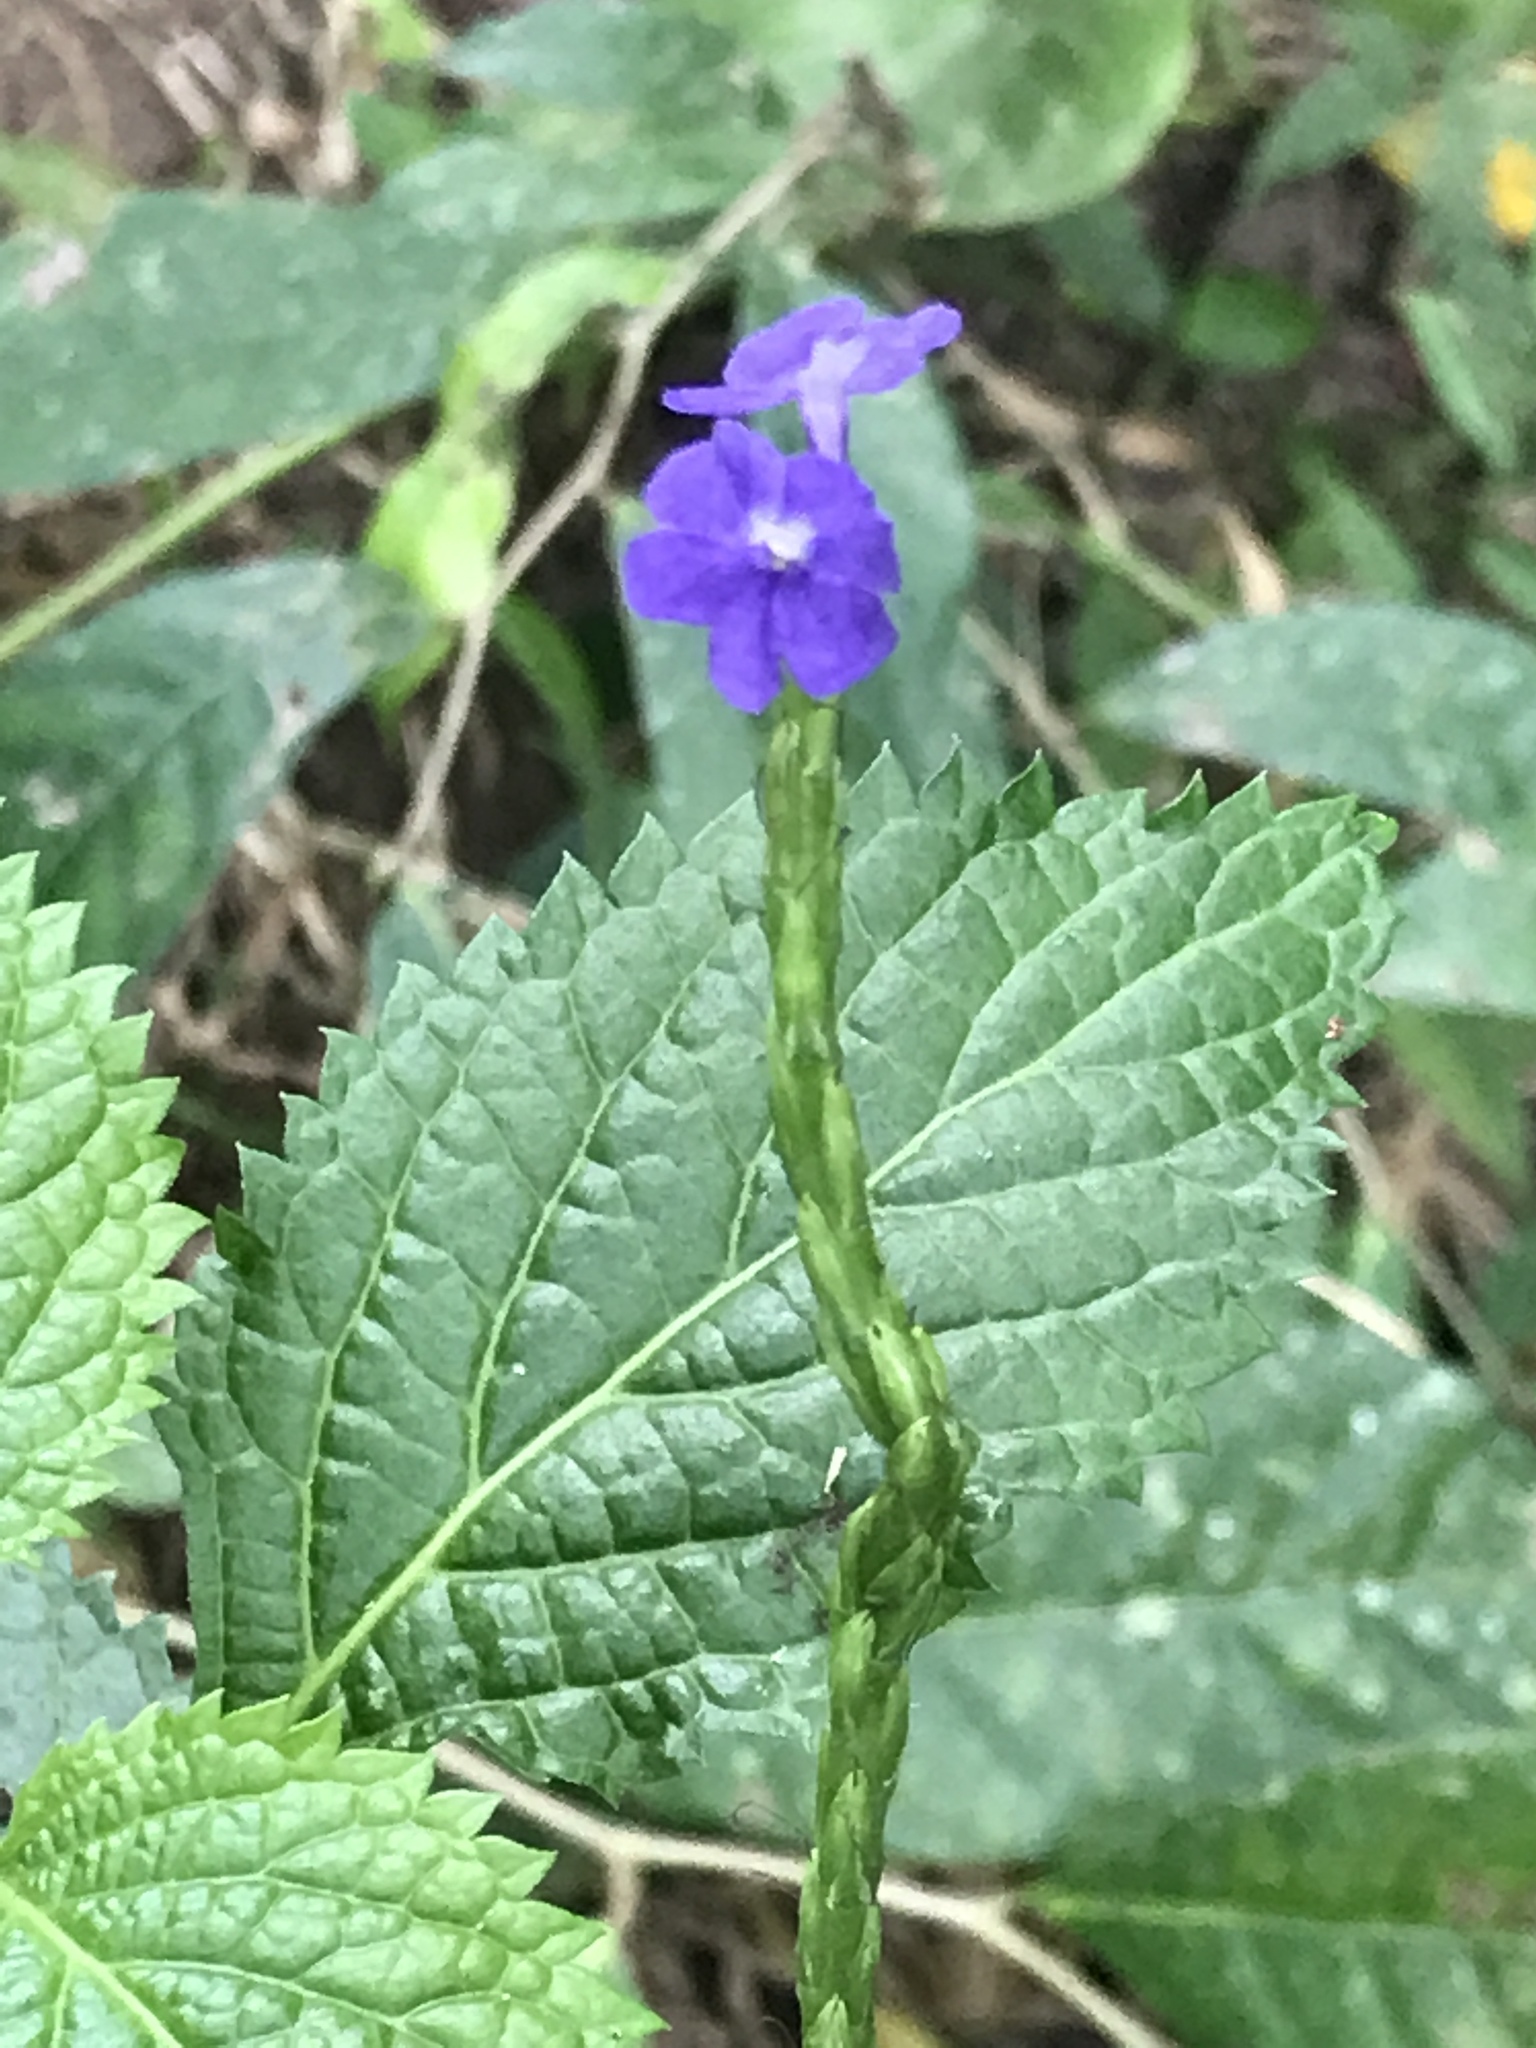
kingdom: Plantae
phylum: Tracheophyta
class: Magnoliopsida
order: Lamiales
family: Verbenaceae
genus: Stachytarpheta
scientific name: Stachytarpheta jamaicensis
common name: Light-blue snakeweed
